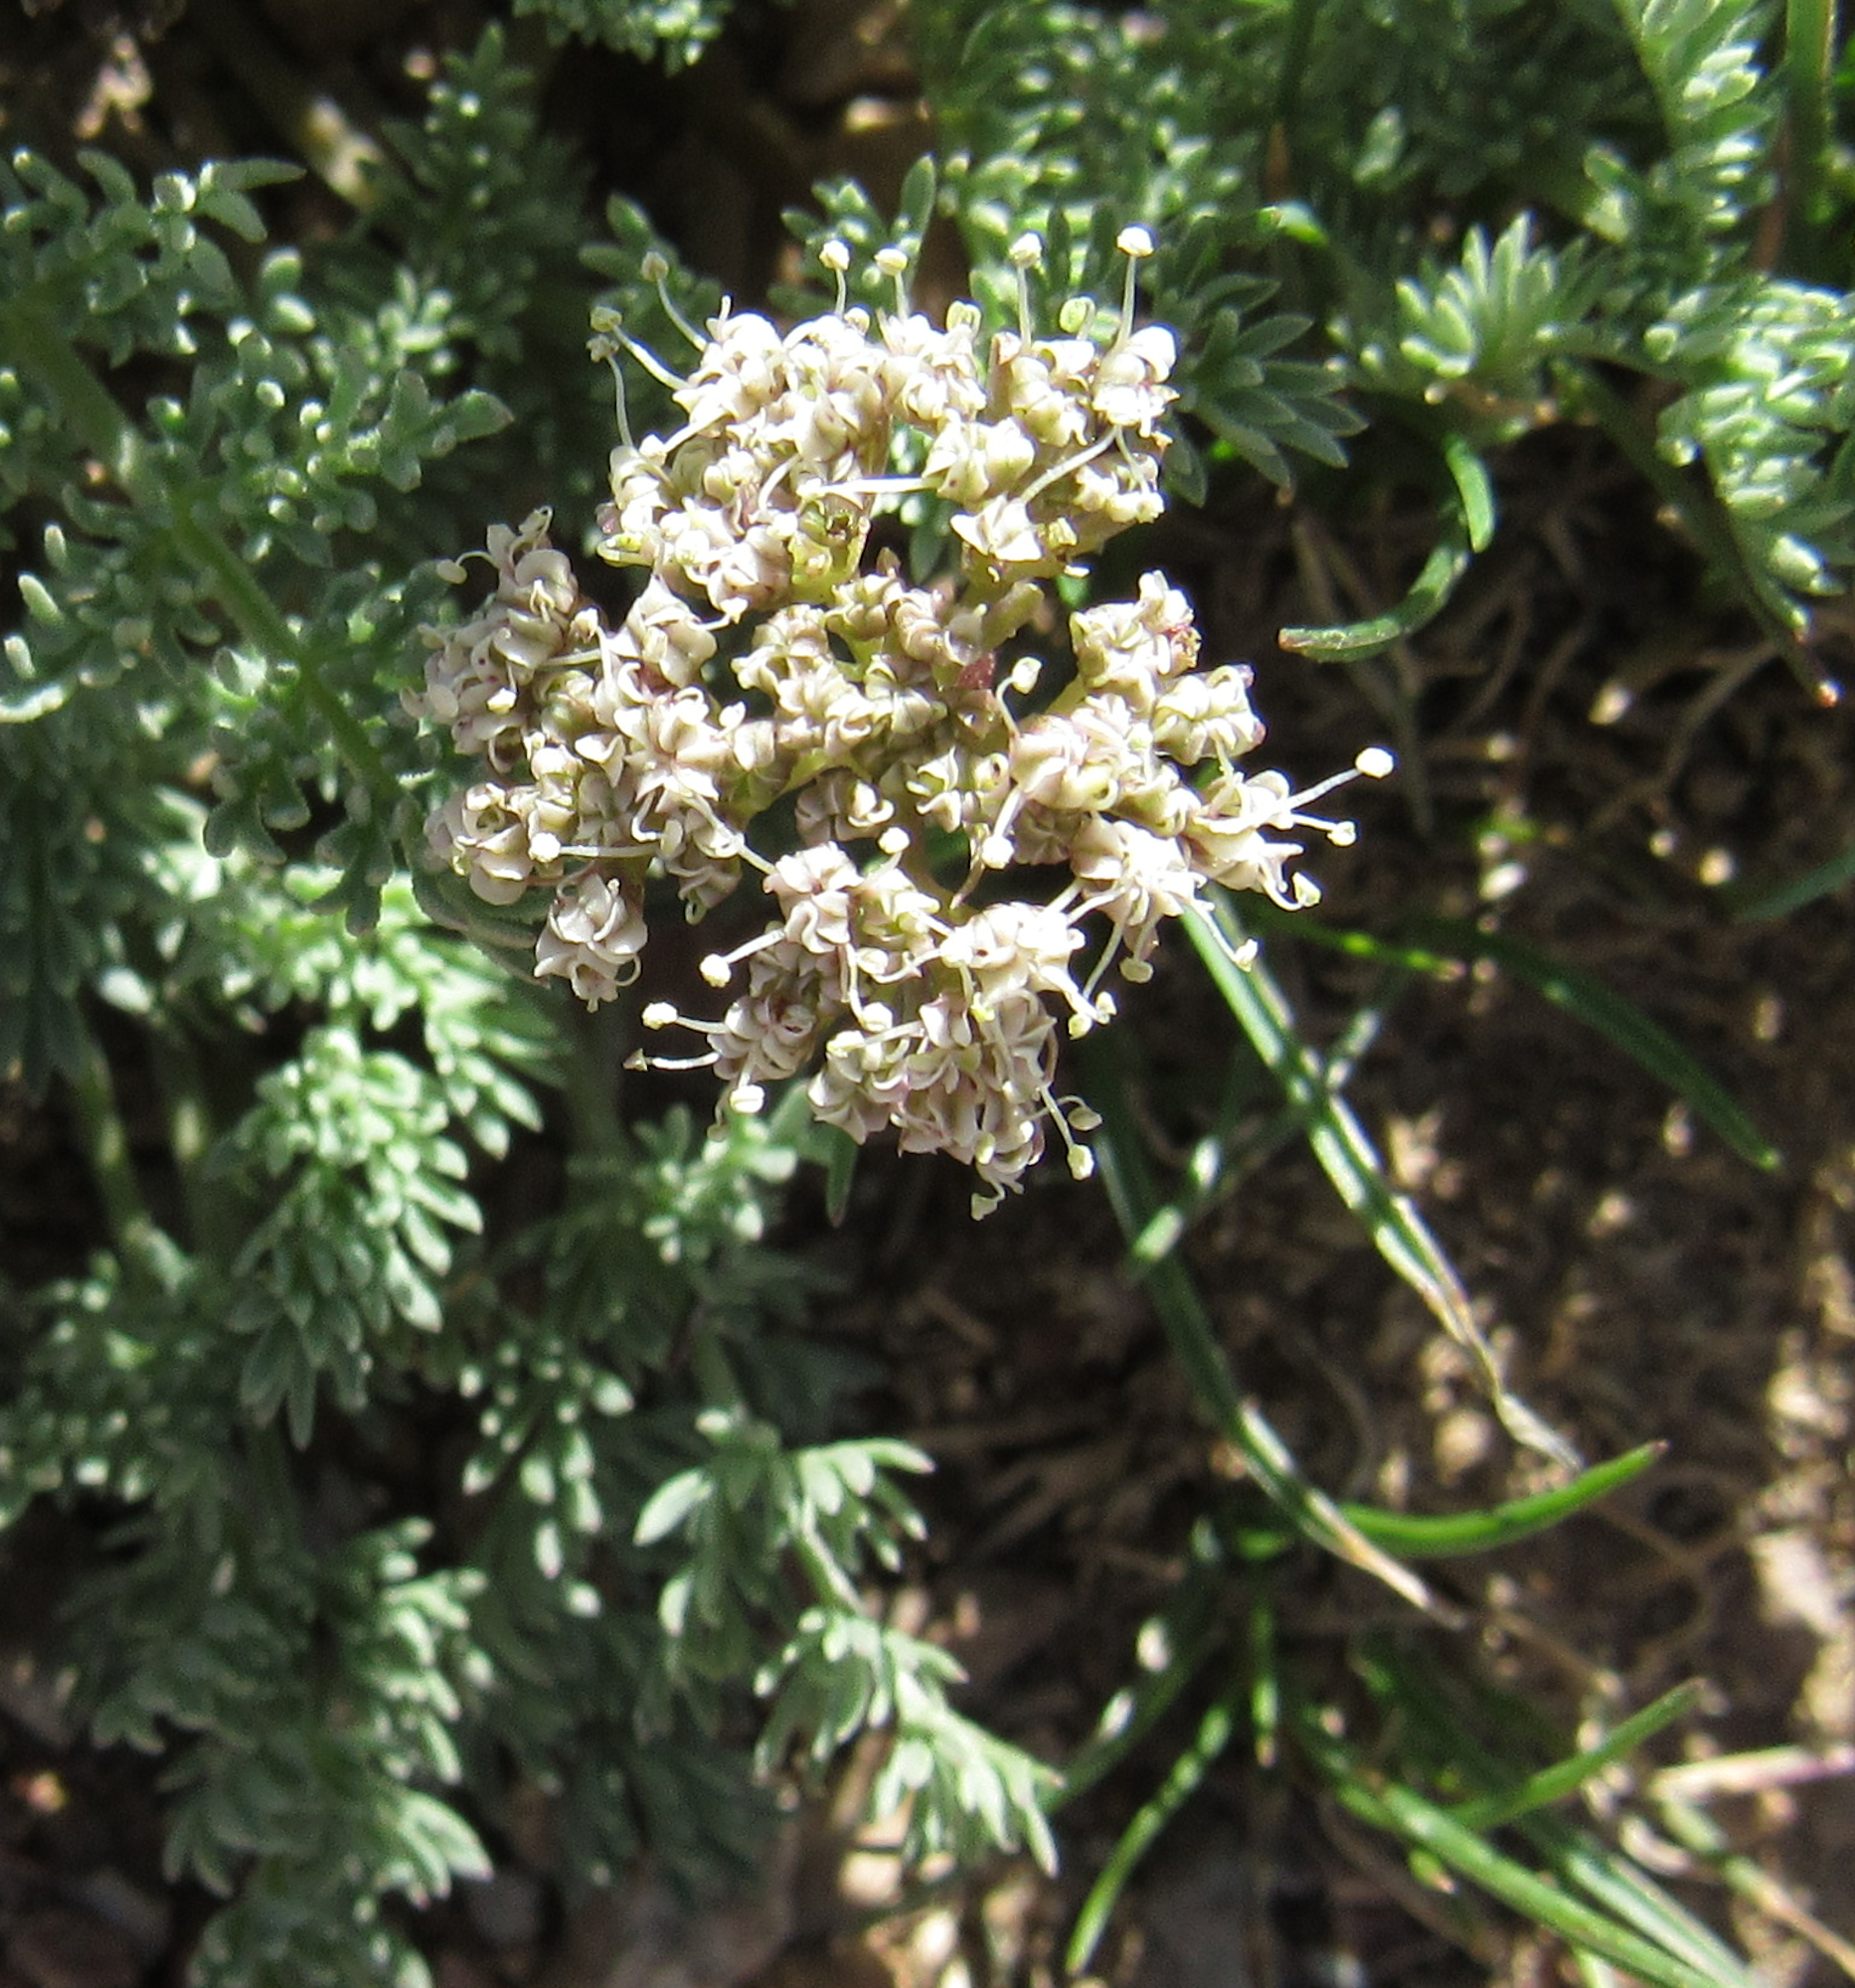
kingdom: Plantae
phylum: Tracheophyta
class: Magnoliopsida
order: Apiales
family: Apiaceae
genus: Pseudocymopterus
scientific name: Pseudocymopterus nivalis
